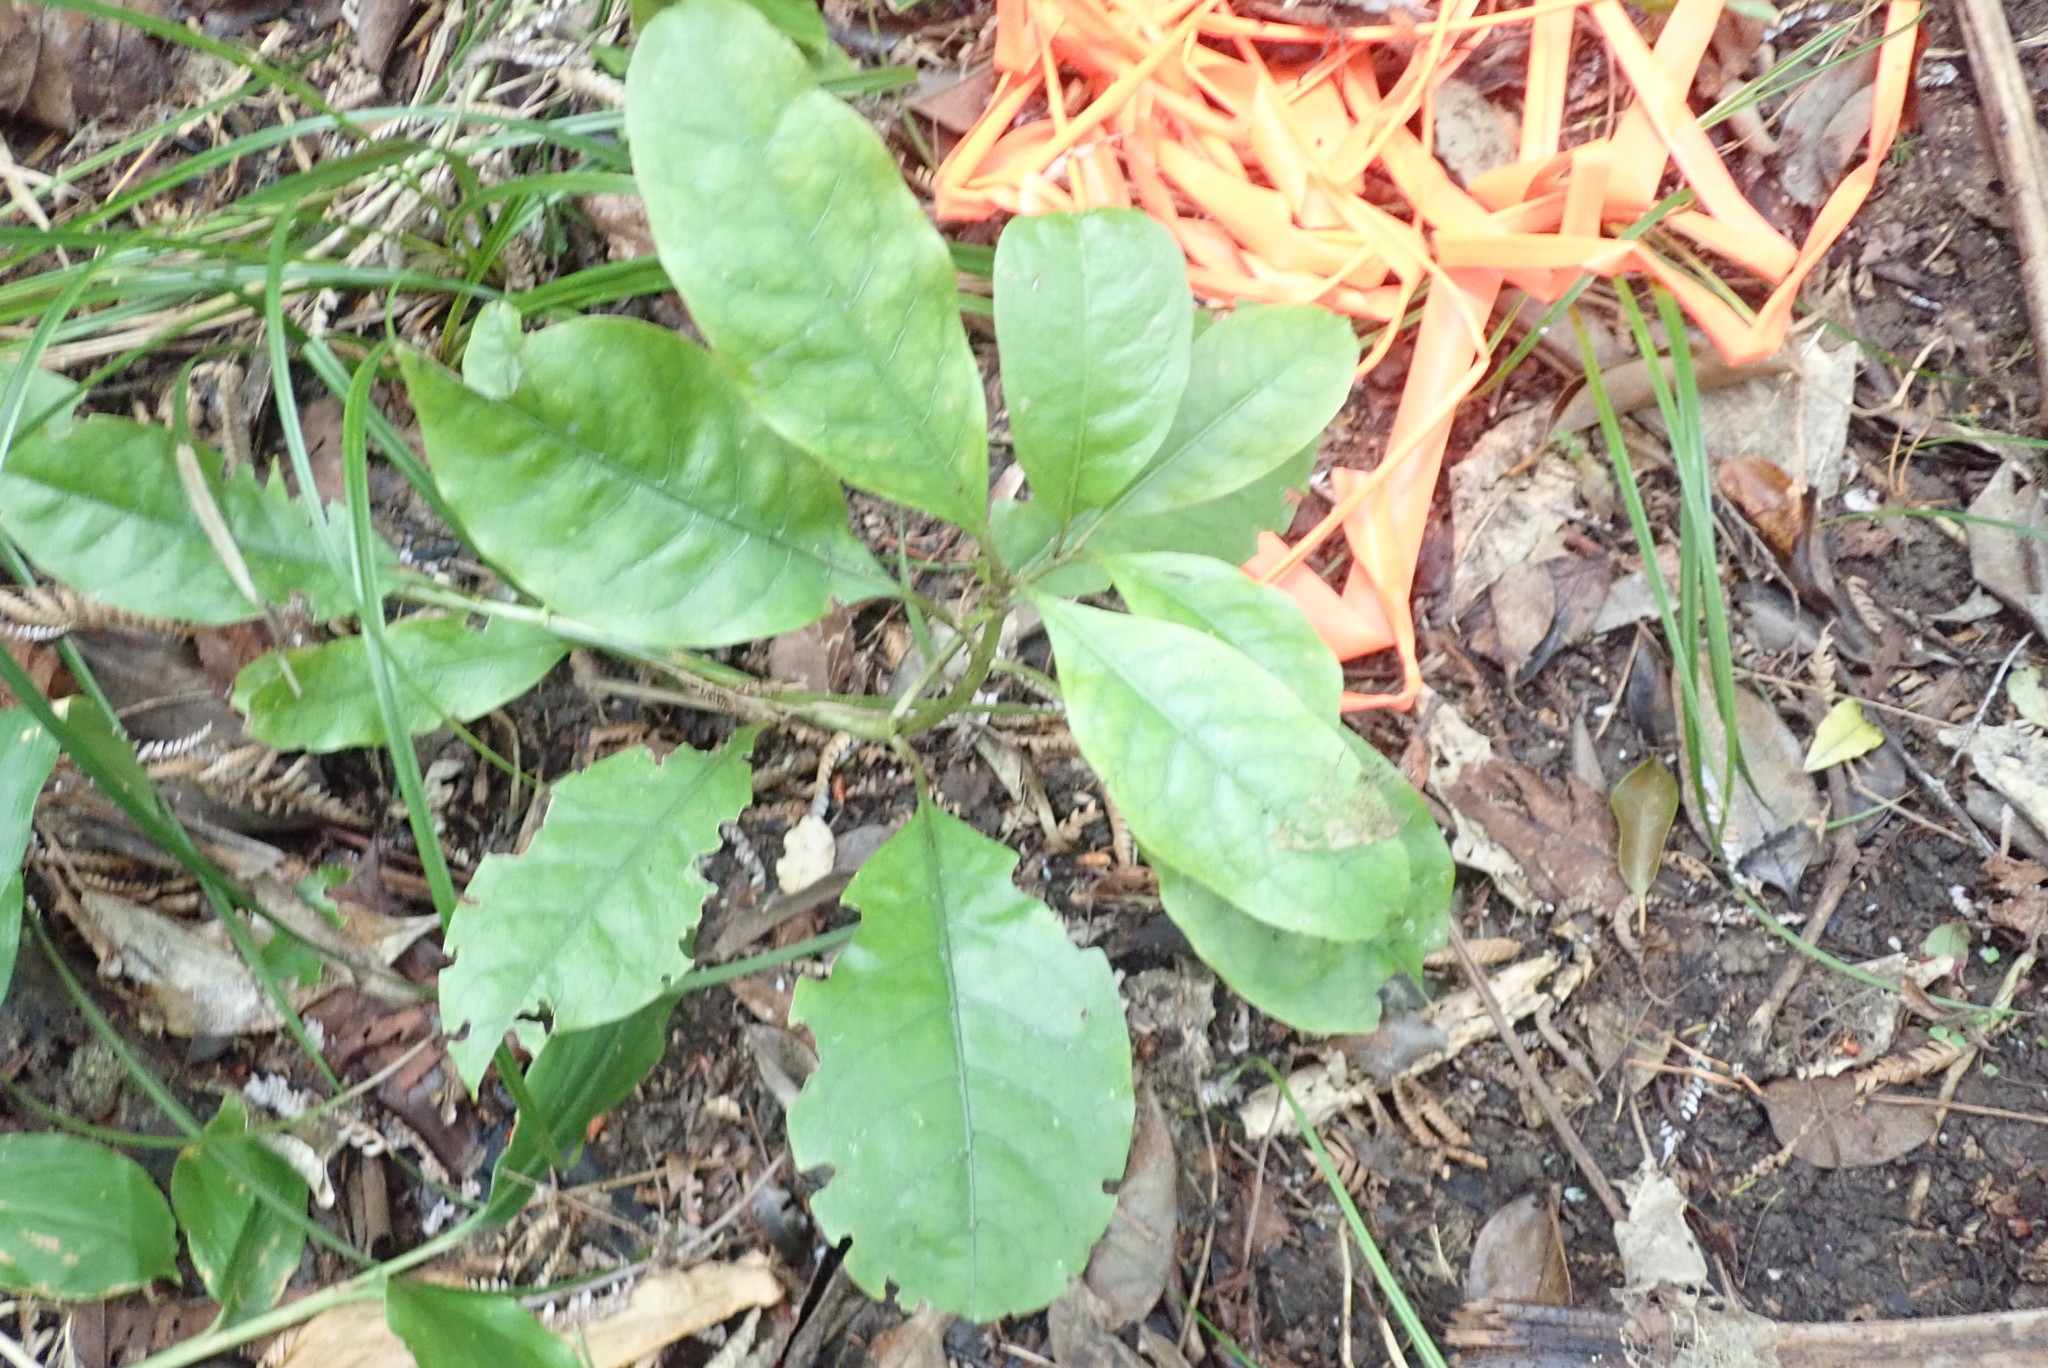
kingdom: Plantae
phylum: Tracheophyta
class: Magnoliopsida
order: Gentianales
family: Rubiaceae
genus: Coprosma
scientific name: Coprosma autumnalis
